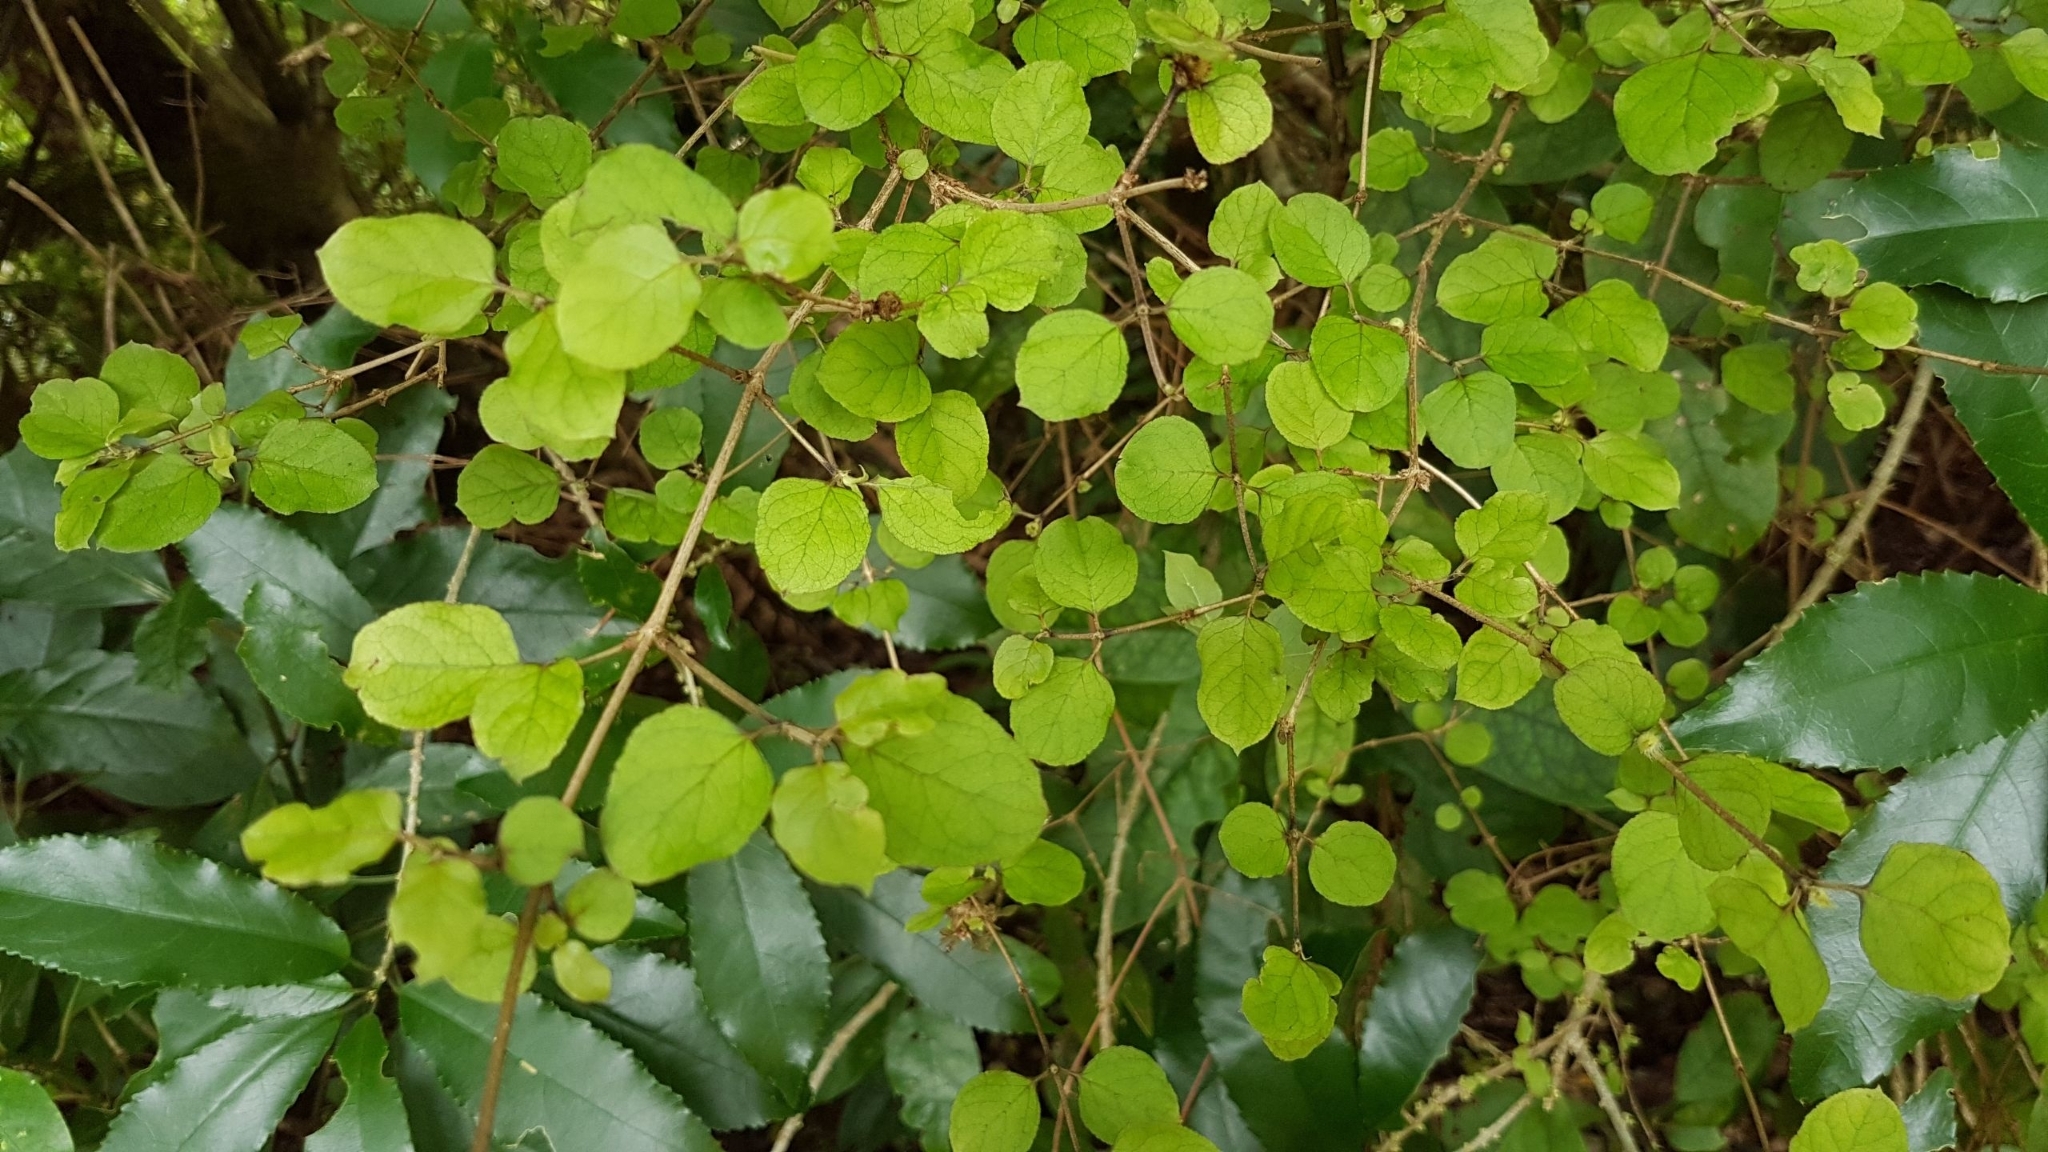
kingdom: Plantae
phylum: Tracheophyta
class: Magnoliopsida
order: Gentianales
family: Rubiaceae
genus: Coprosma
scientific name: Coprosma rotundifolia
